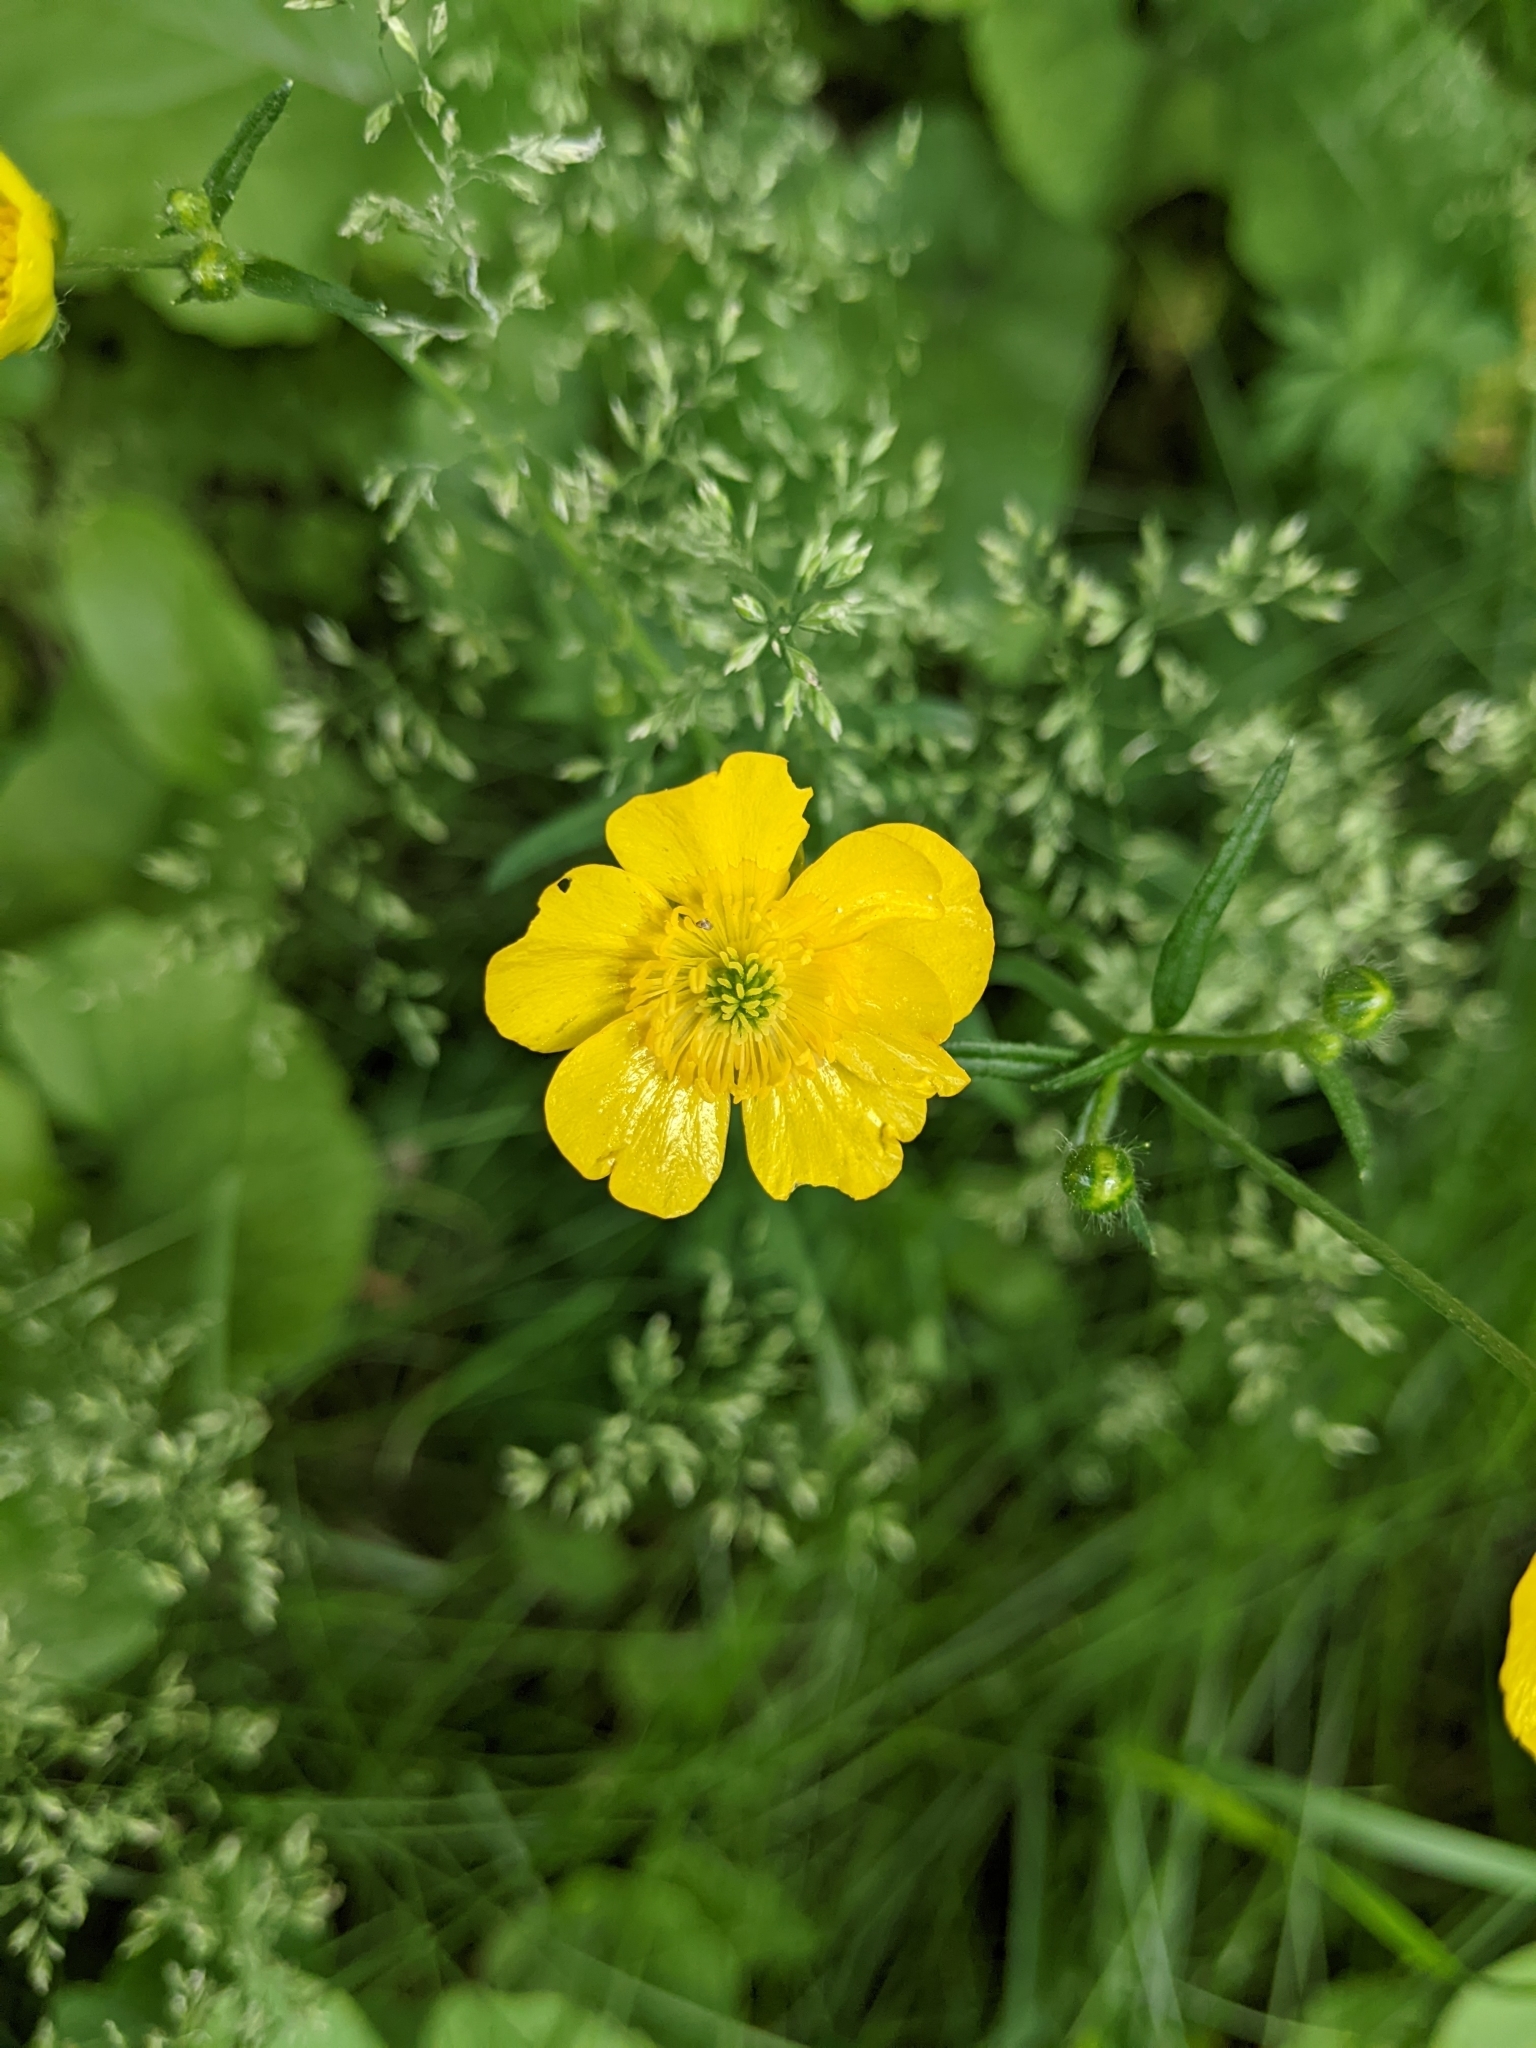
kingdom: Plantae
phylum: Tracheophyta
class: Magnoliopsida
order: Ranunculales
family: Ranunculaceae
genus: Ranunculus
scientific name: Ranunculus acris
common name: Meadow buttercup
